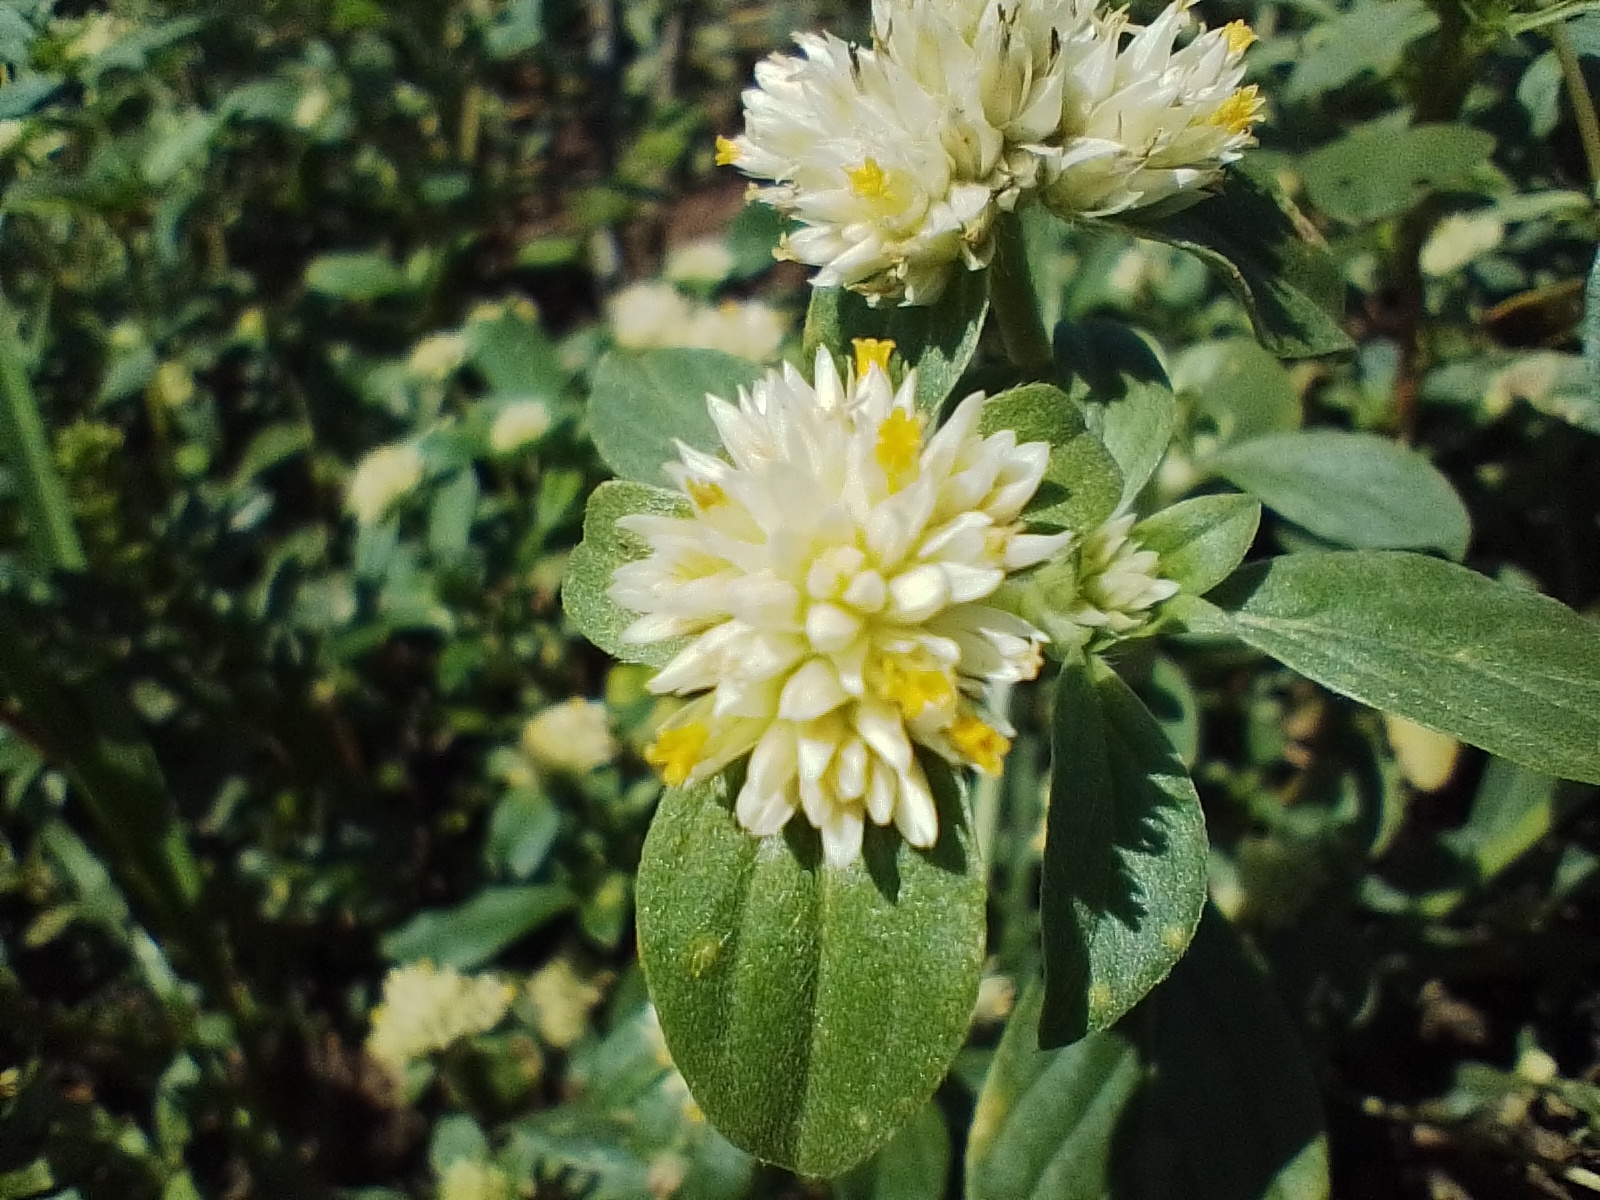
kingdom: Plantae
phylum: Tracheophyta
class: Magnoliopsida
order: Caryophyllales
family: Amaranthaceae
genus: Gomphrena
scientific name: Gomphrena martiana
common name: Globe amaranth
